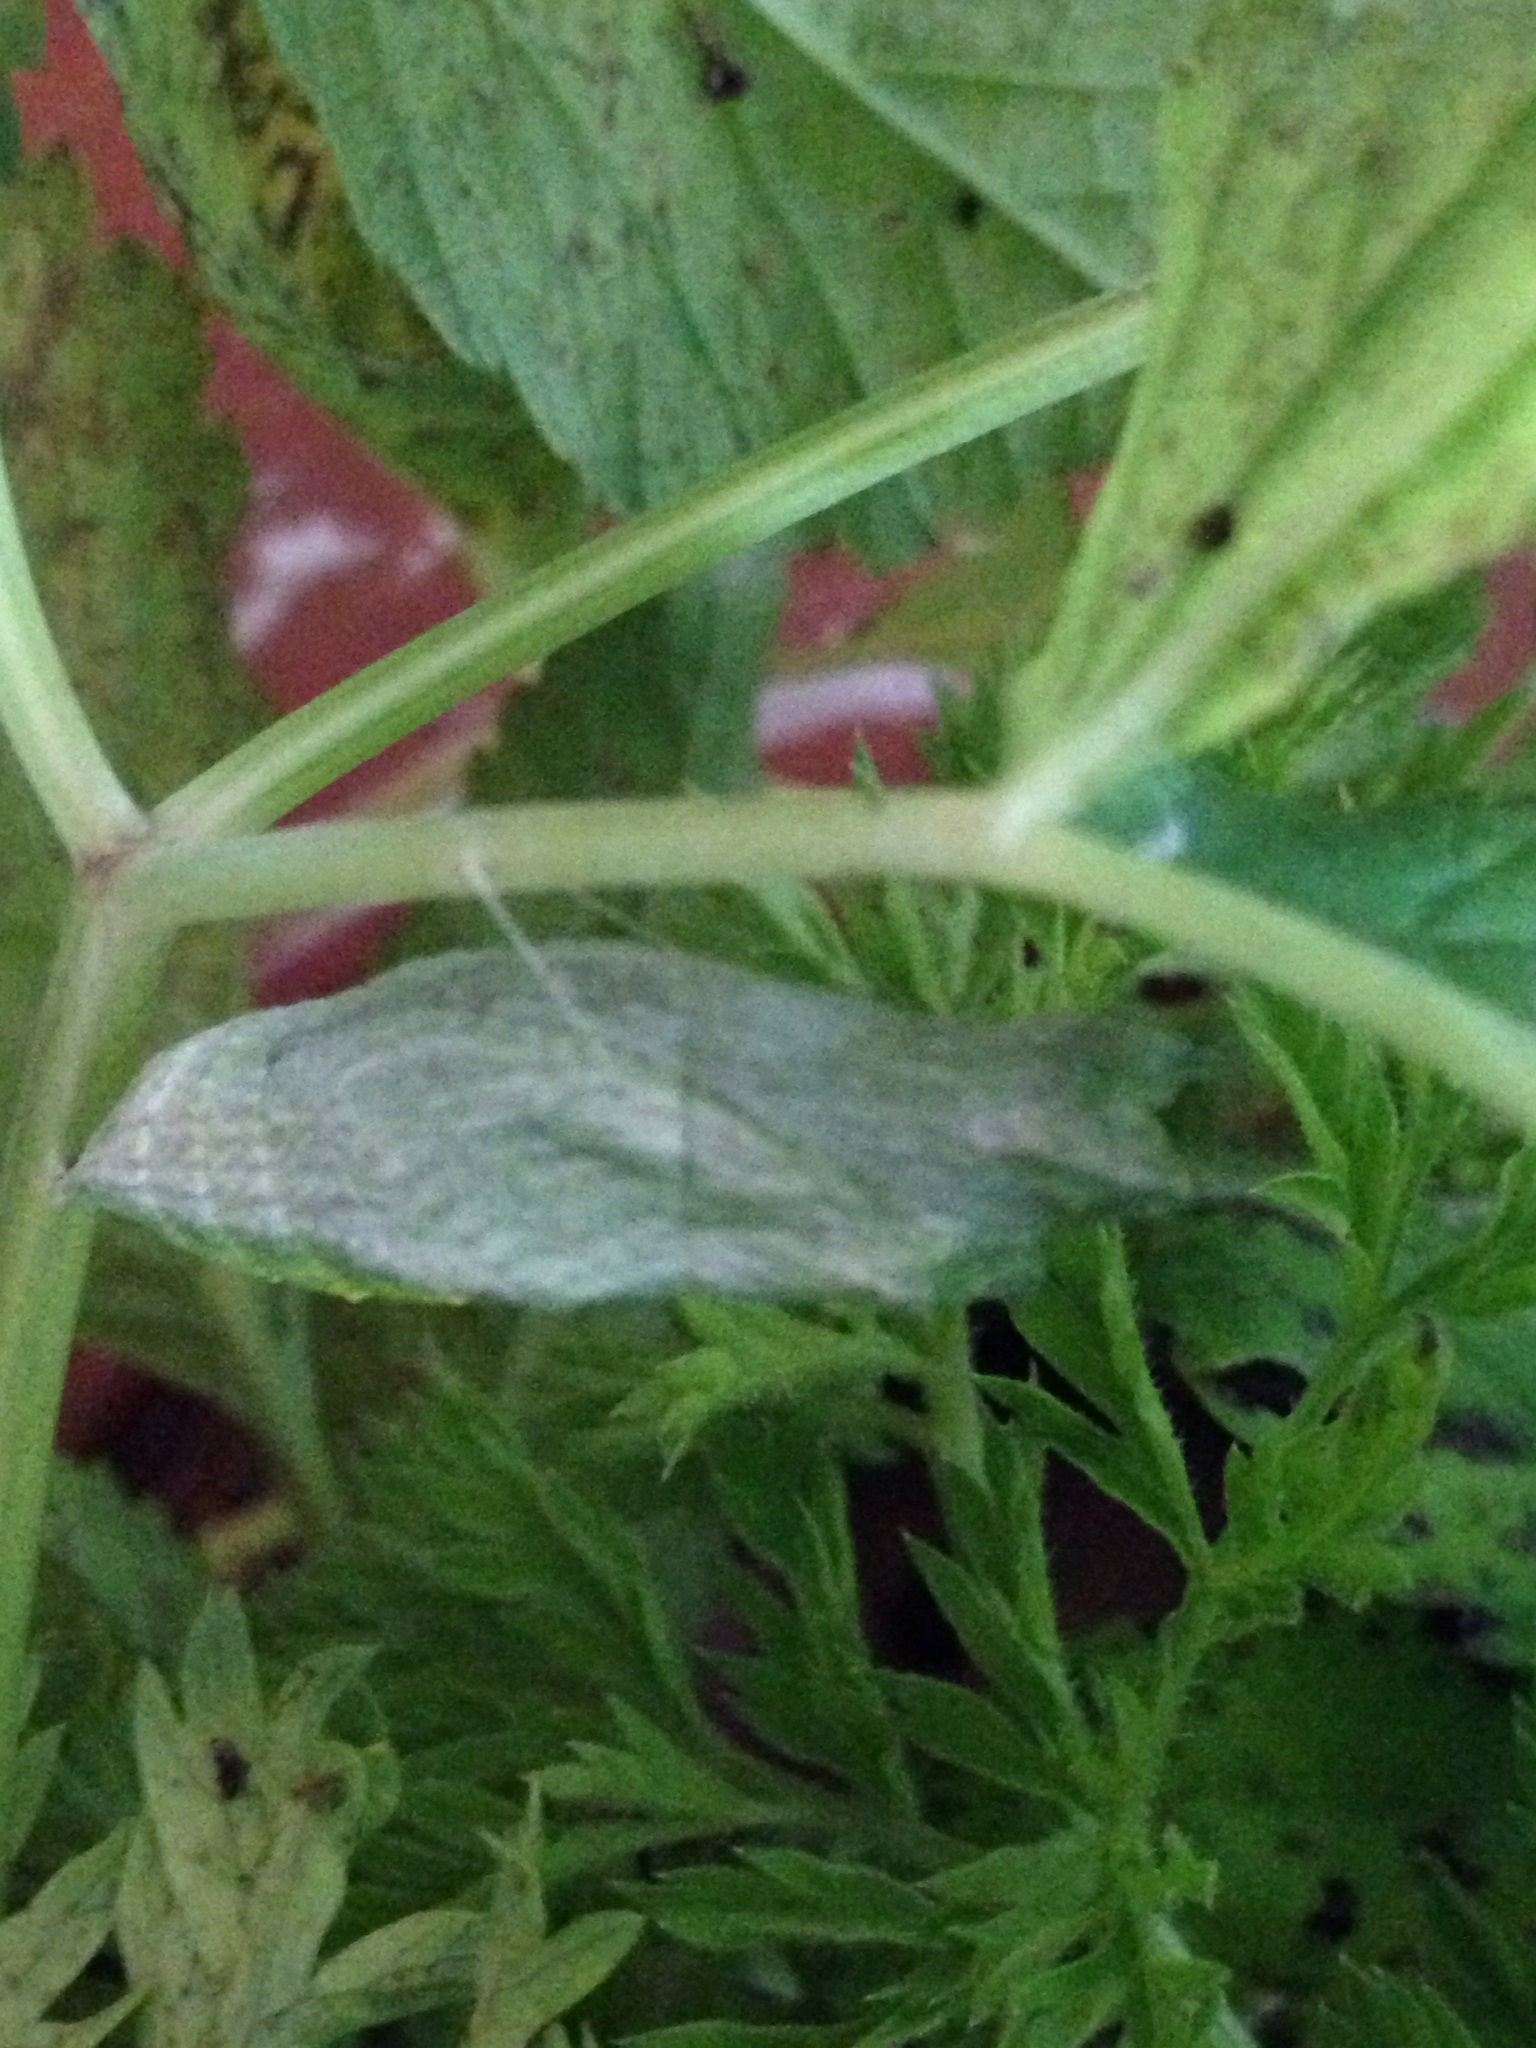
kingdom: Animalia
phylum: Arthropoda
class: Insecta
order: Lepidoptera
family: Papilionidae
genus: Papilio
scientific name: Papilio polyxenes
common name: Black swallowtail
